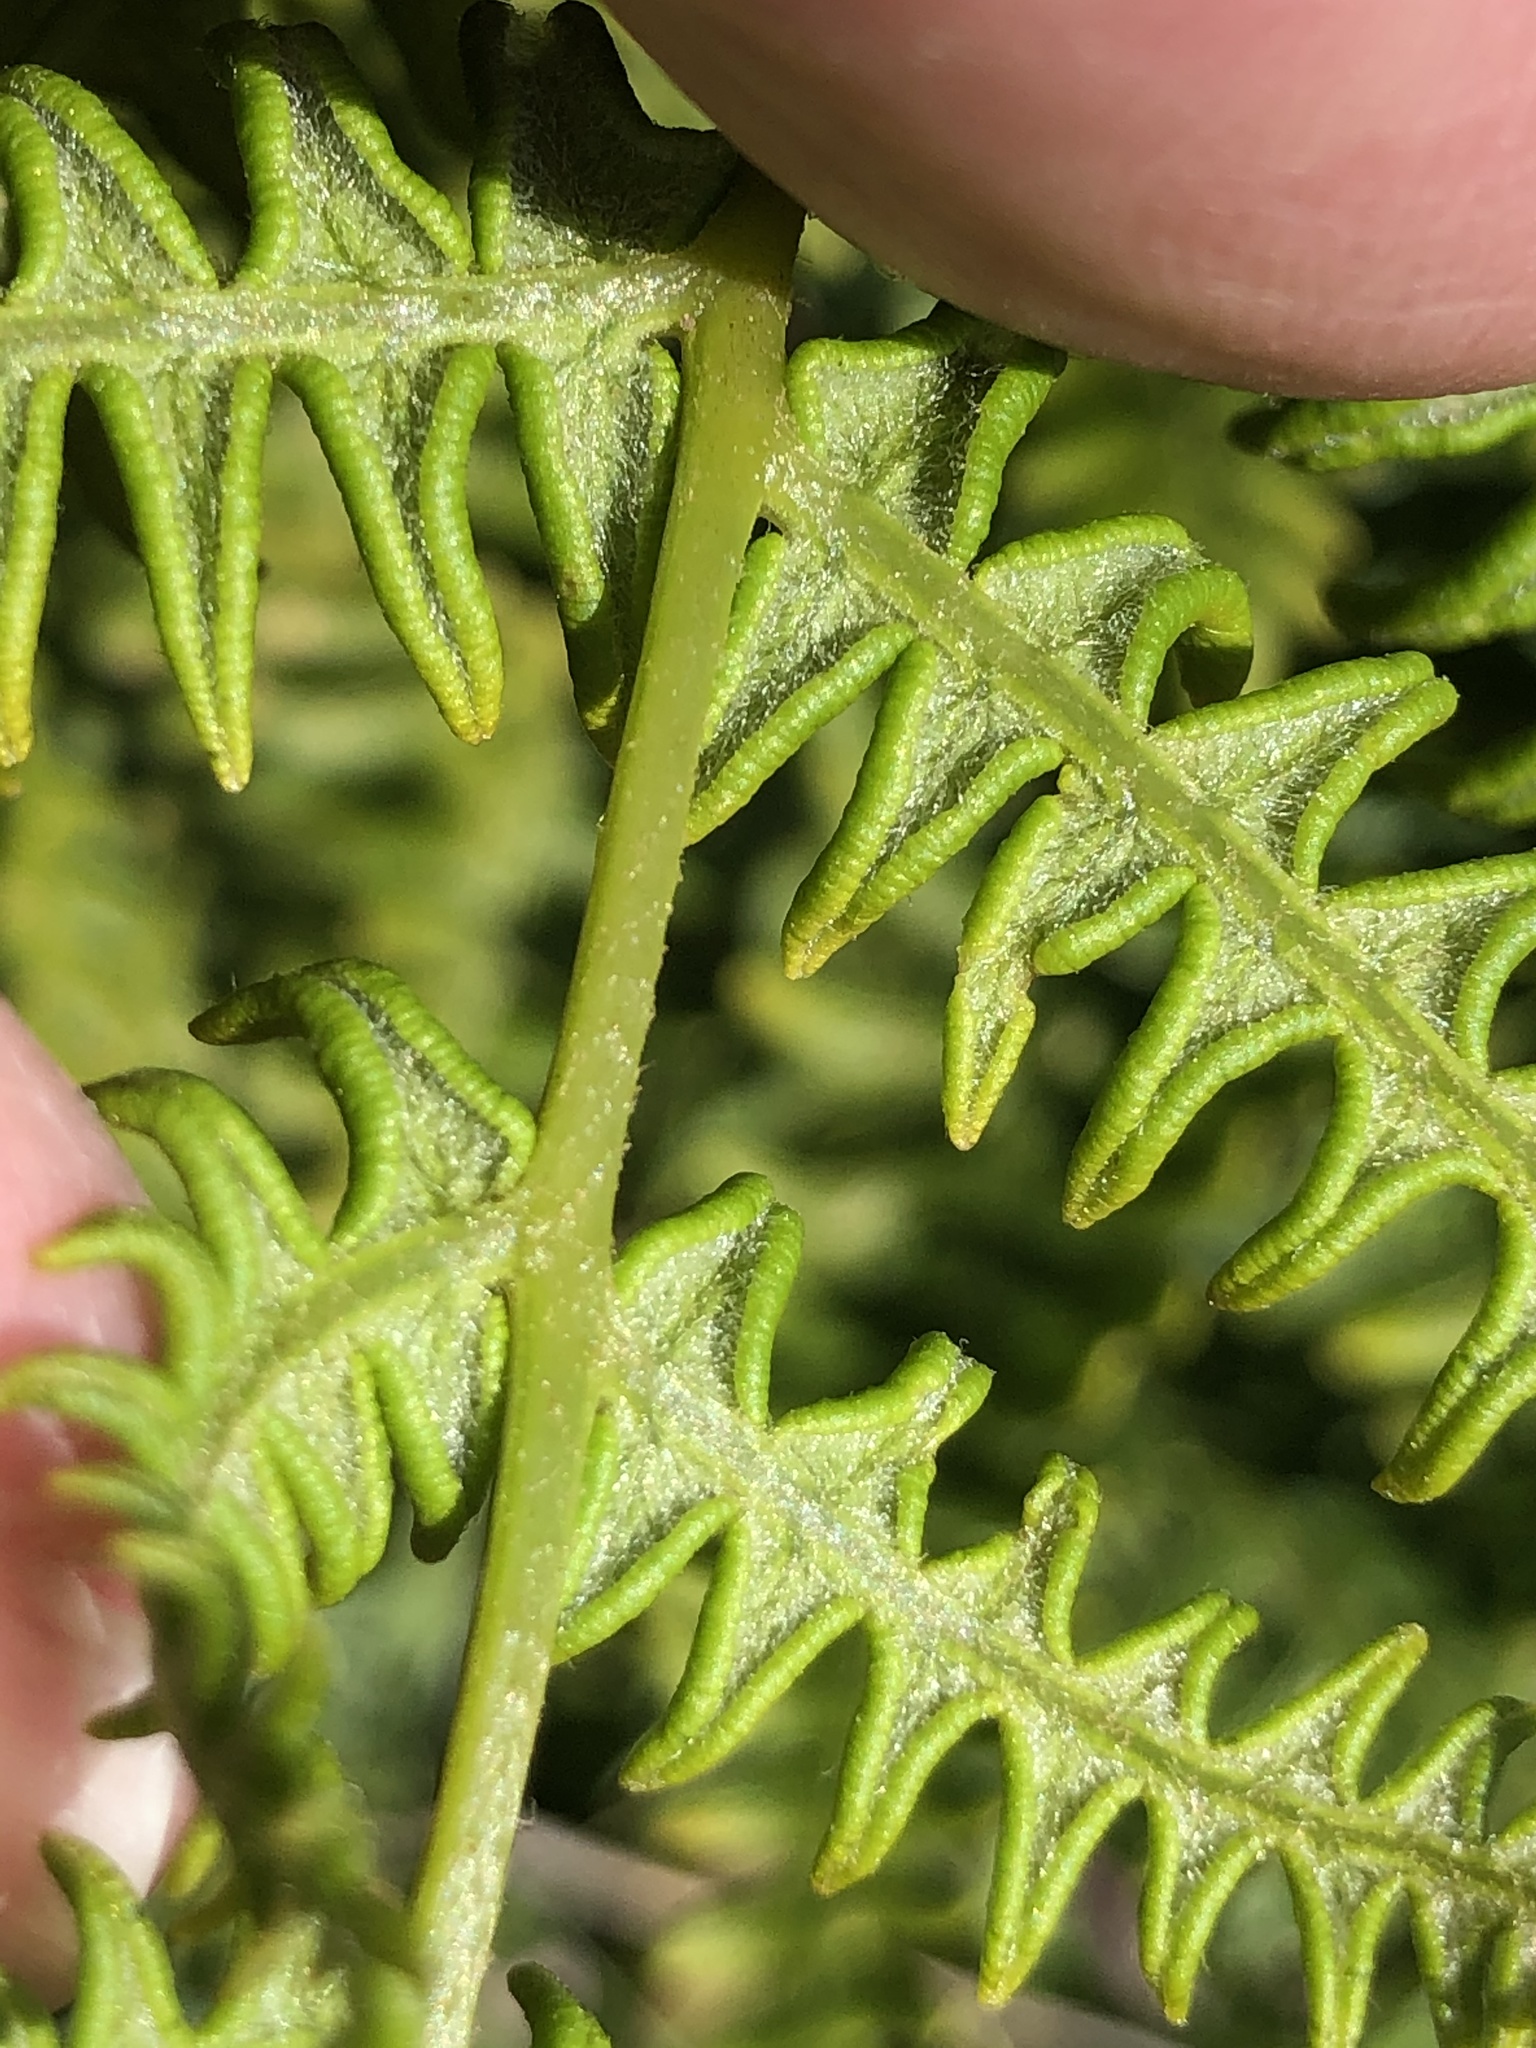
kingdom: Plantae
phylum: Tracheophyta
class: Polypodiopsida
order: Polypodiales
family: Dennstaedtiaceae
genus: Pteridium
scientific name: Pteridium aquilinum
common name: Bracken
